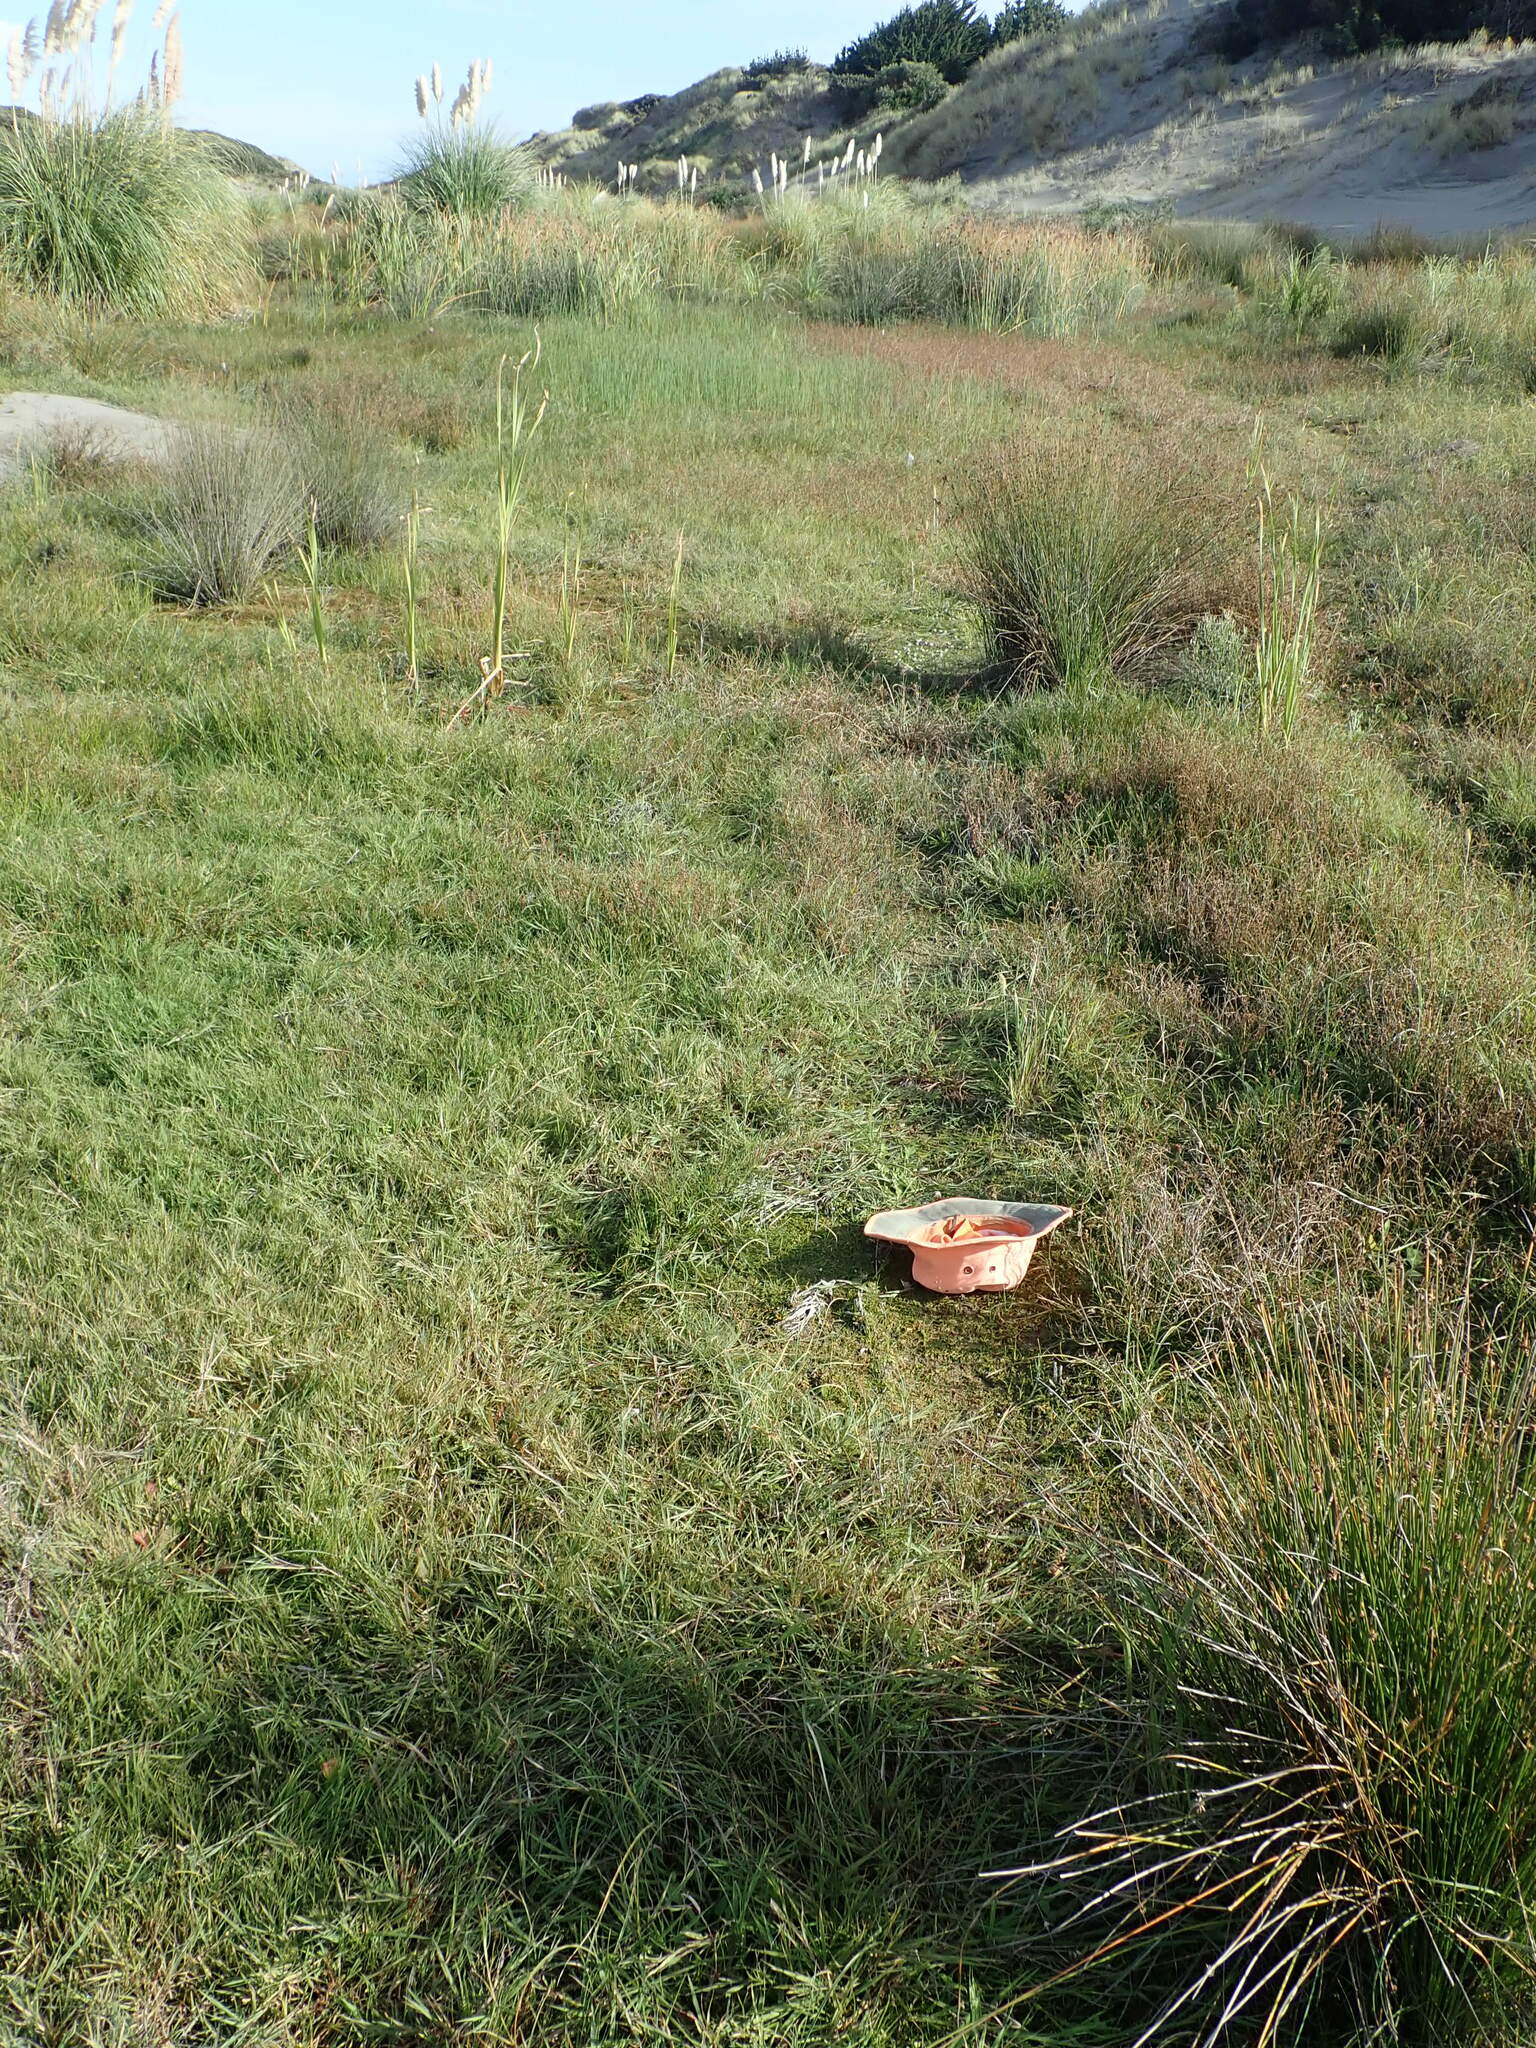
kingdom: Plantae
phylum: Tracheophyta
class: Magnoliopsida
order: Caryophyllales
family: Amaranthaceae
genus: Atriplex
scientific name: Atriplex prostrata
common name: Spear-leaved orache
